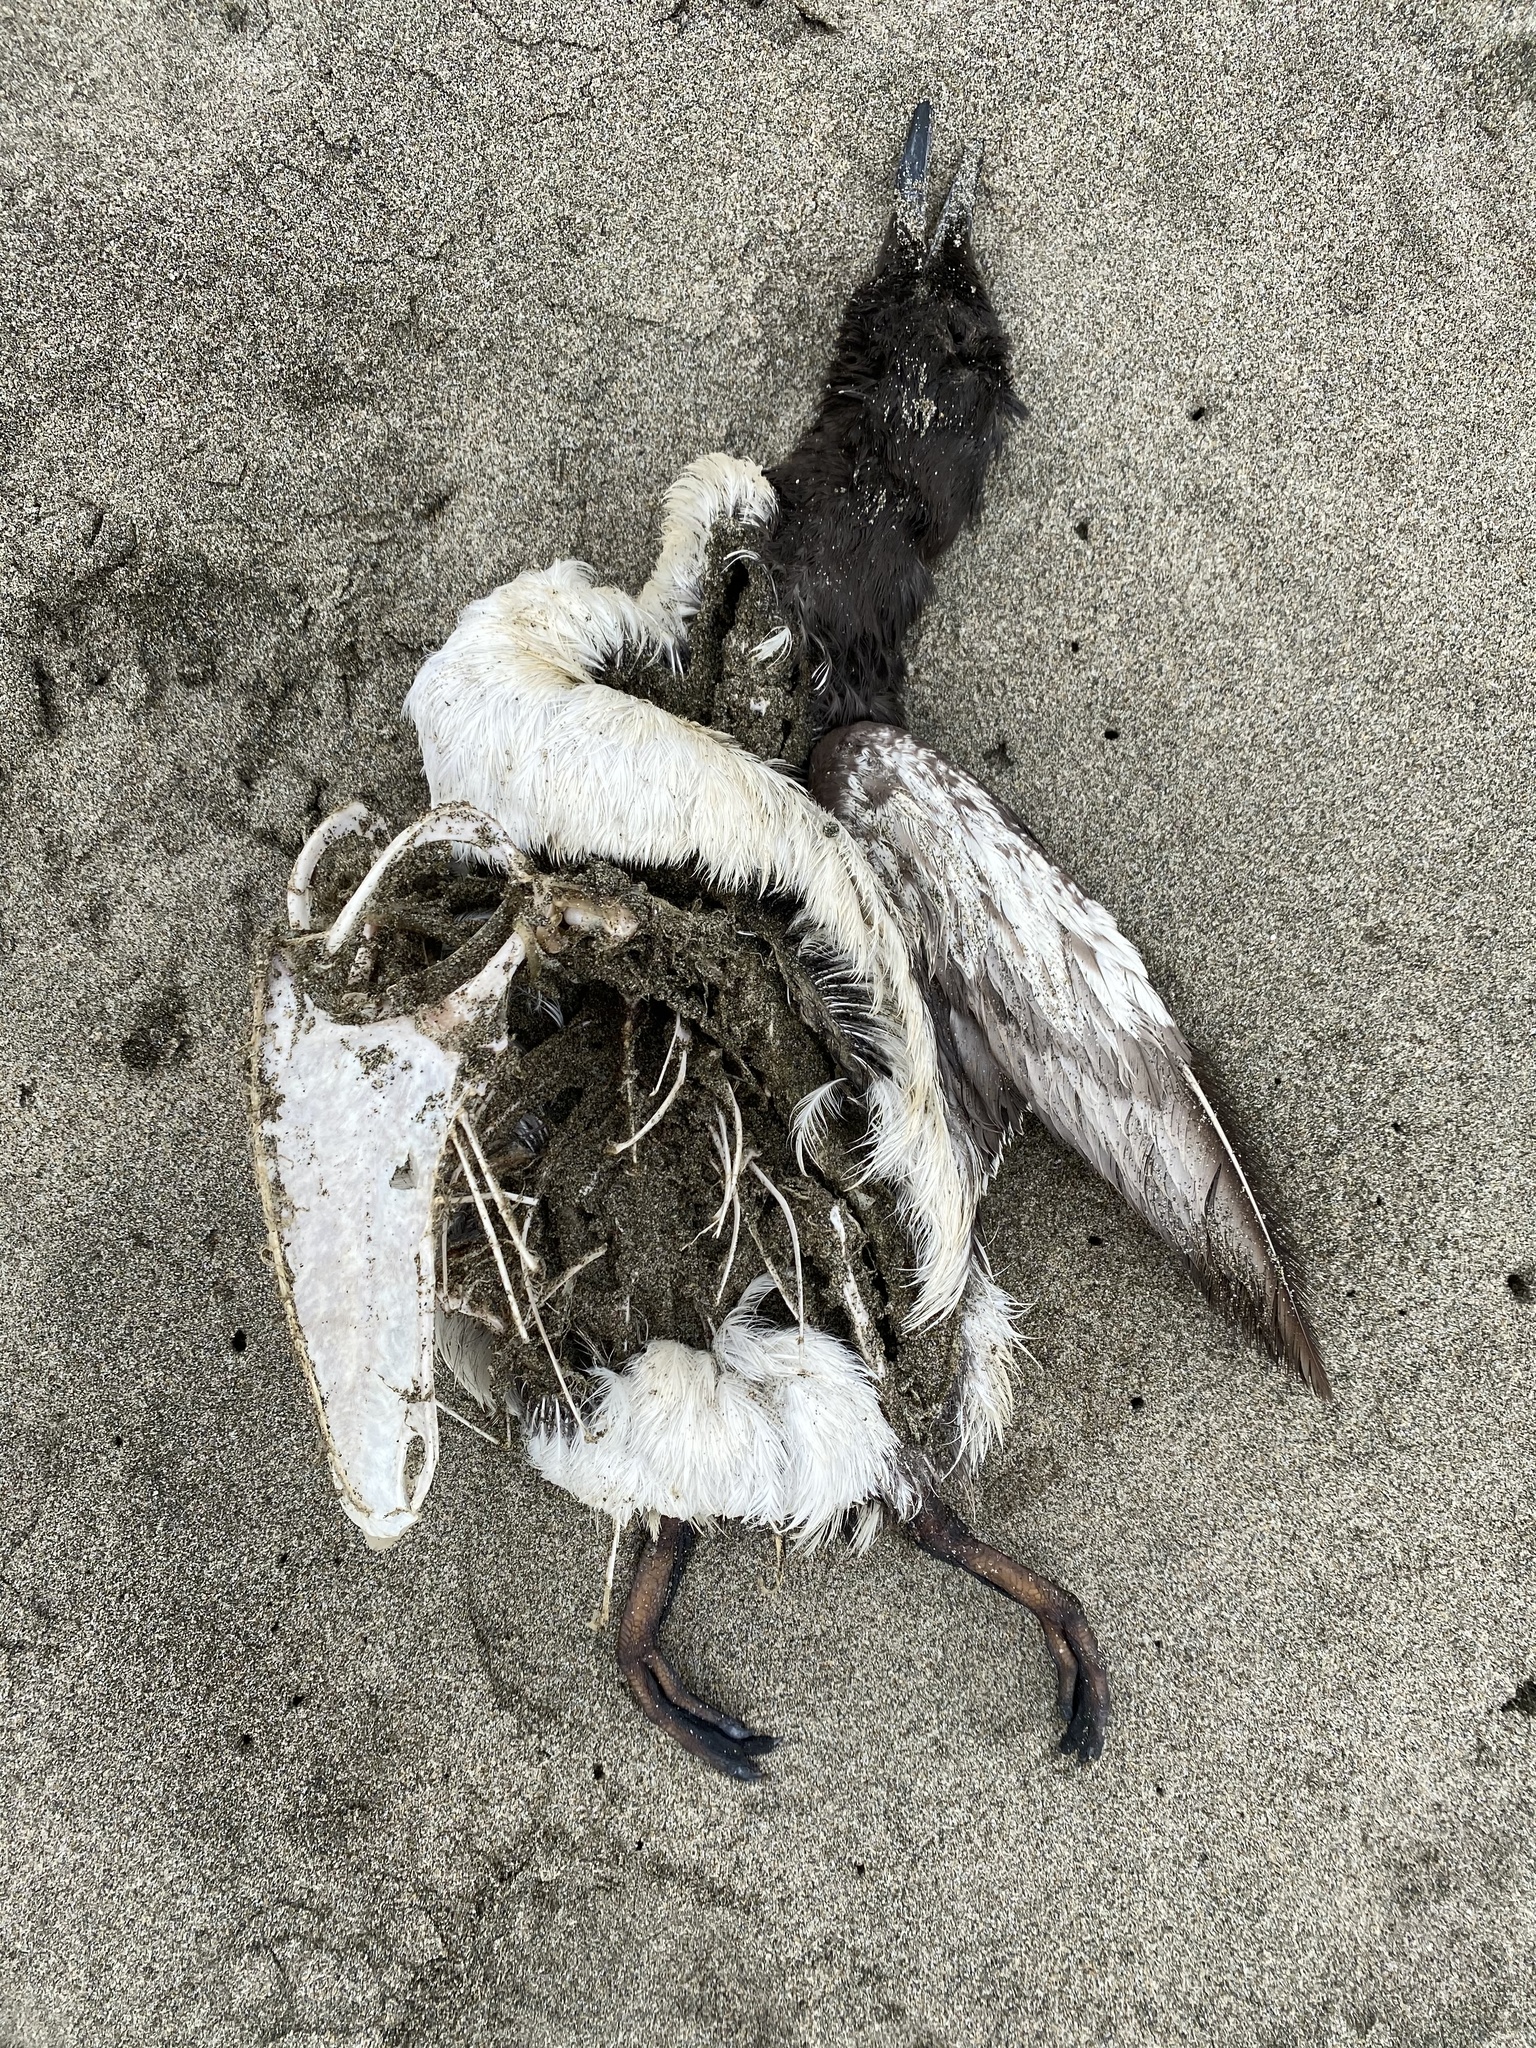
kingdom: Animalia
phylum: Chordata
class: Aves
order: Charadriiformes
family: Alcidae
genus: Uria
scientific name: Uria aalge
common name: Common murre
